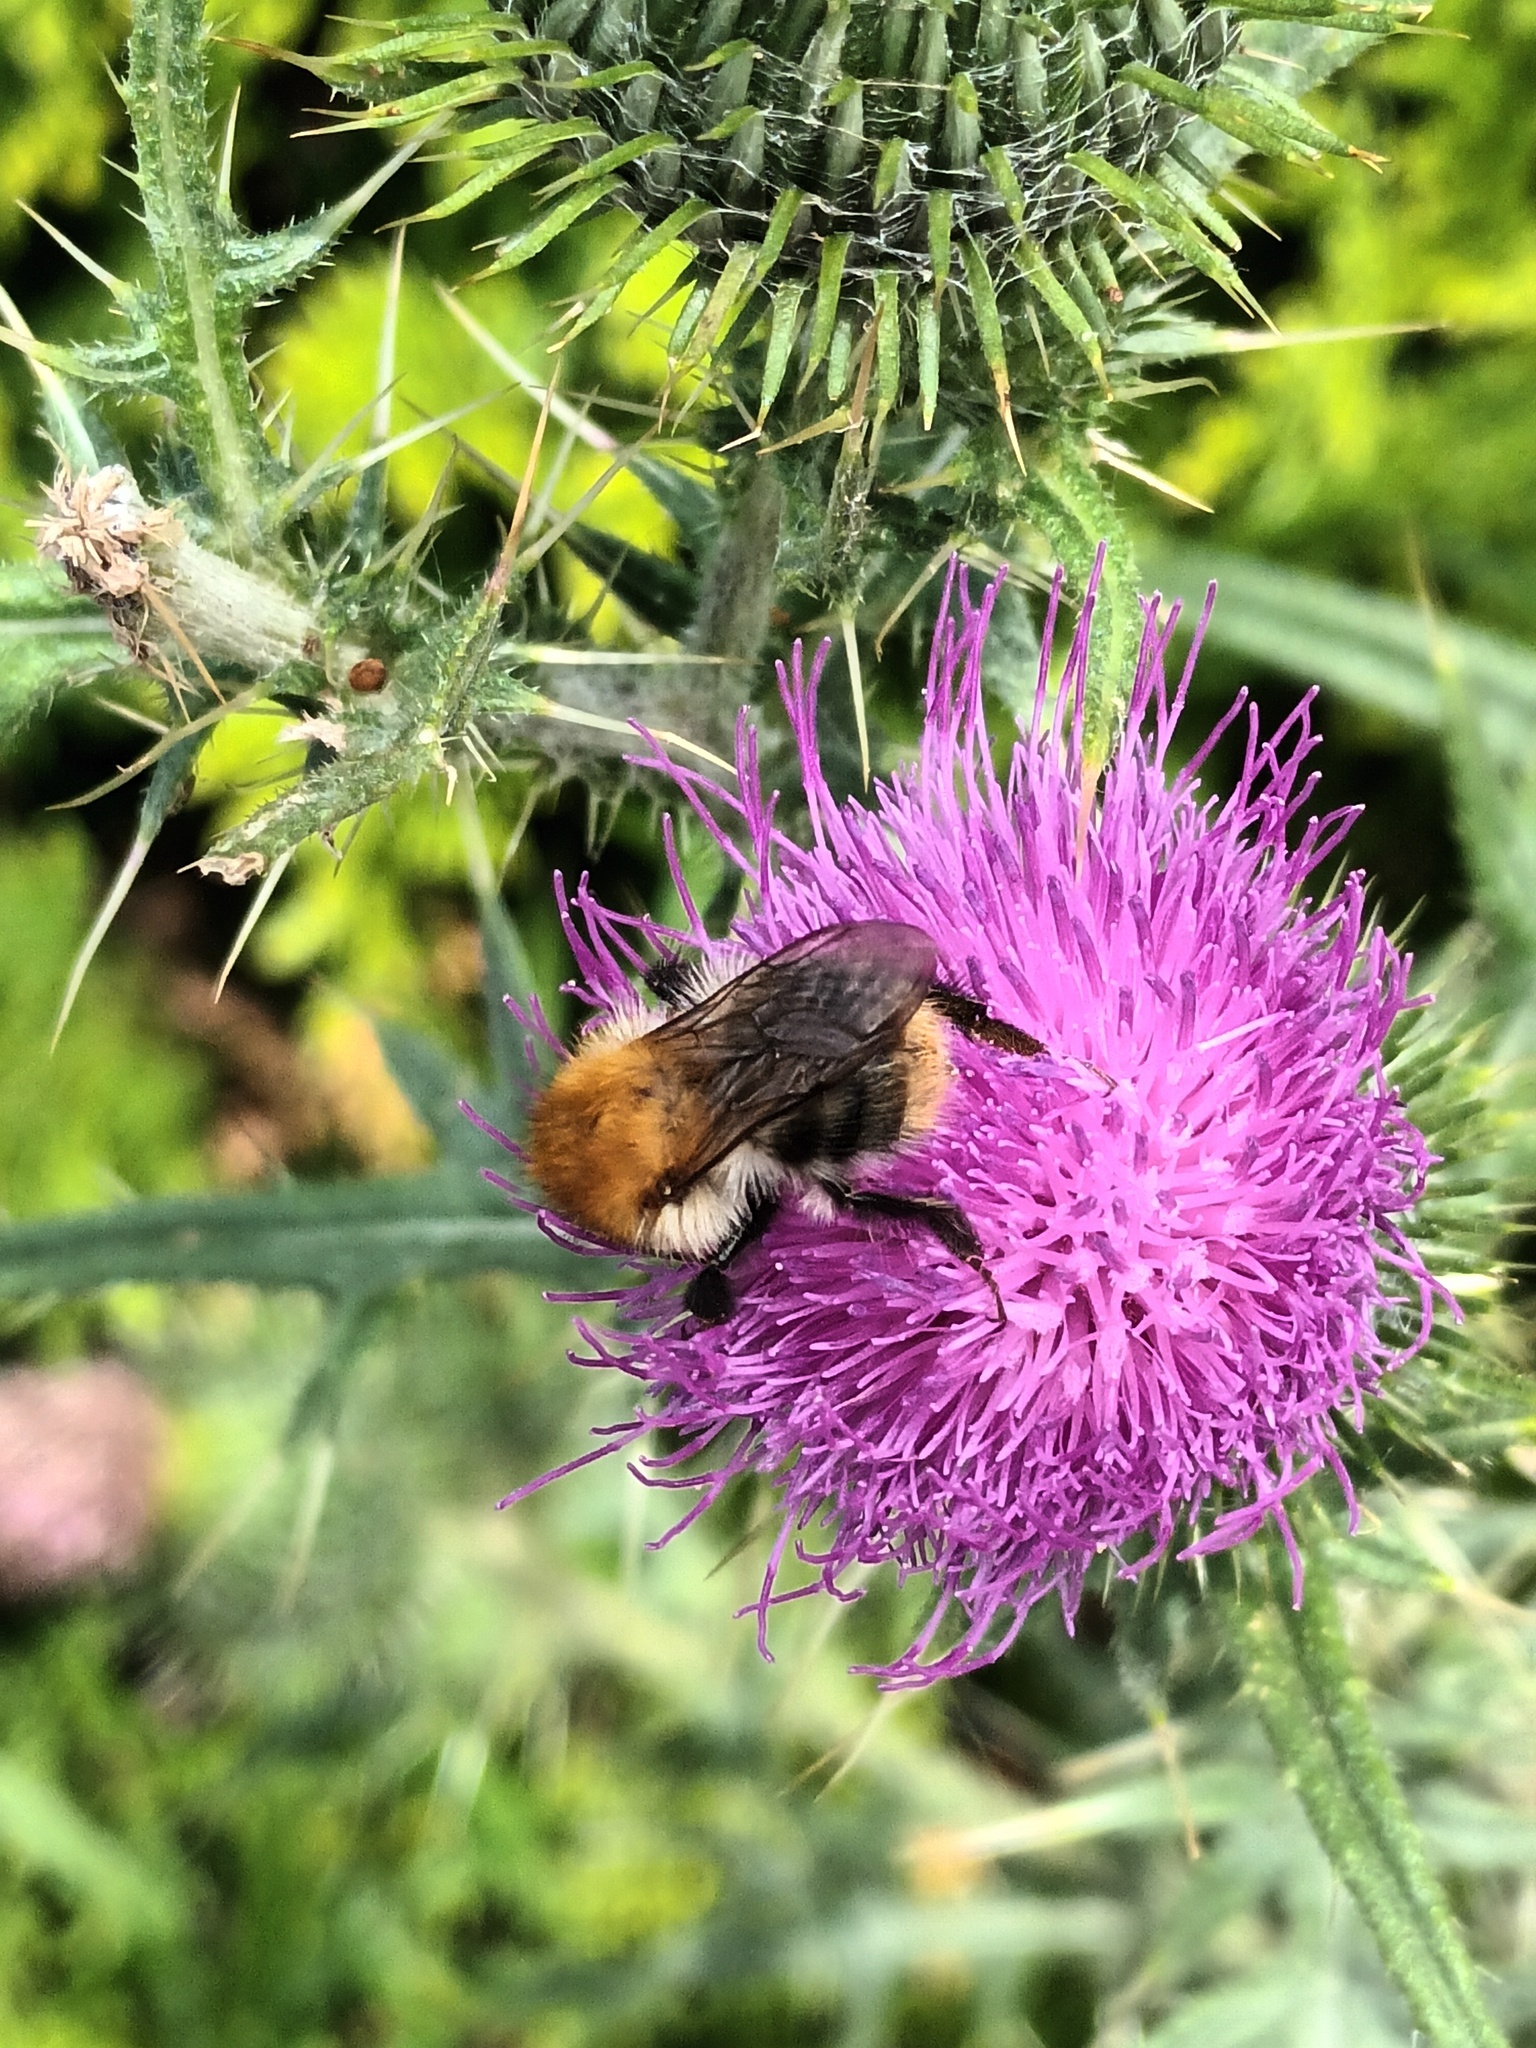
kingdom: Animalia
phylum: Arthropoda
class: Insecta
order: Hymenoptera
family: Apidae
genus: Bombus
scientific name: Bombus pascuorum
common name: Common carder bee
